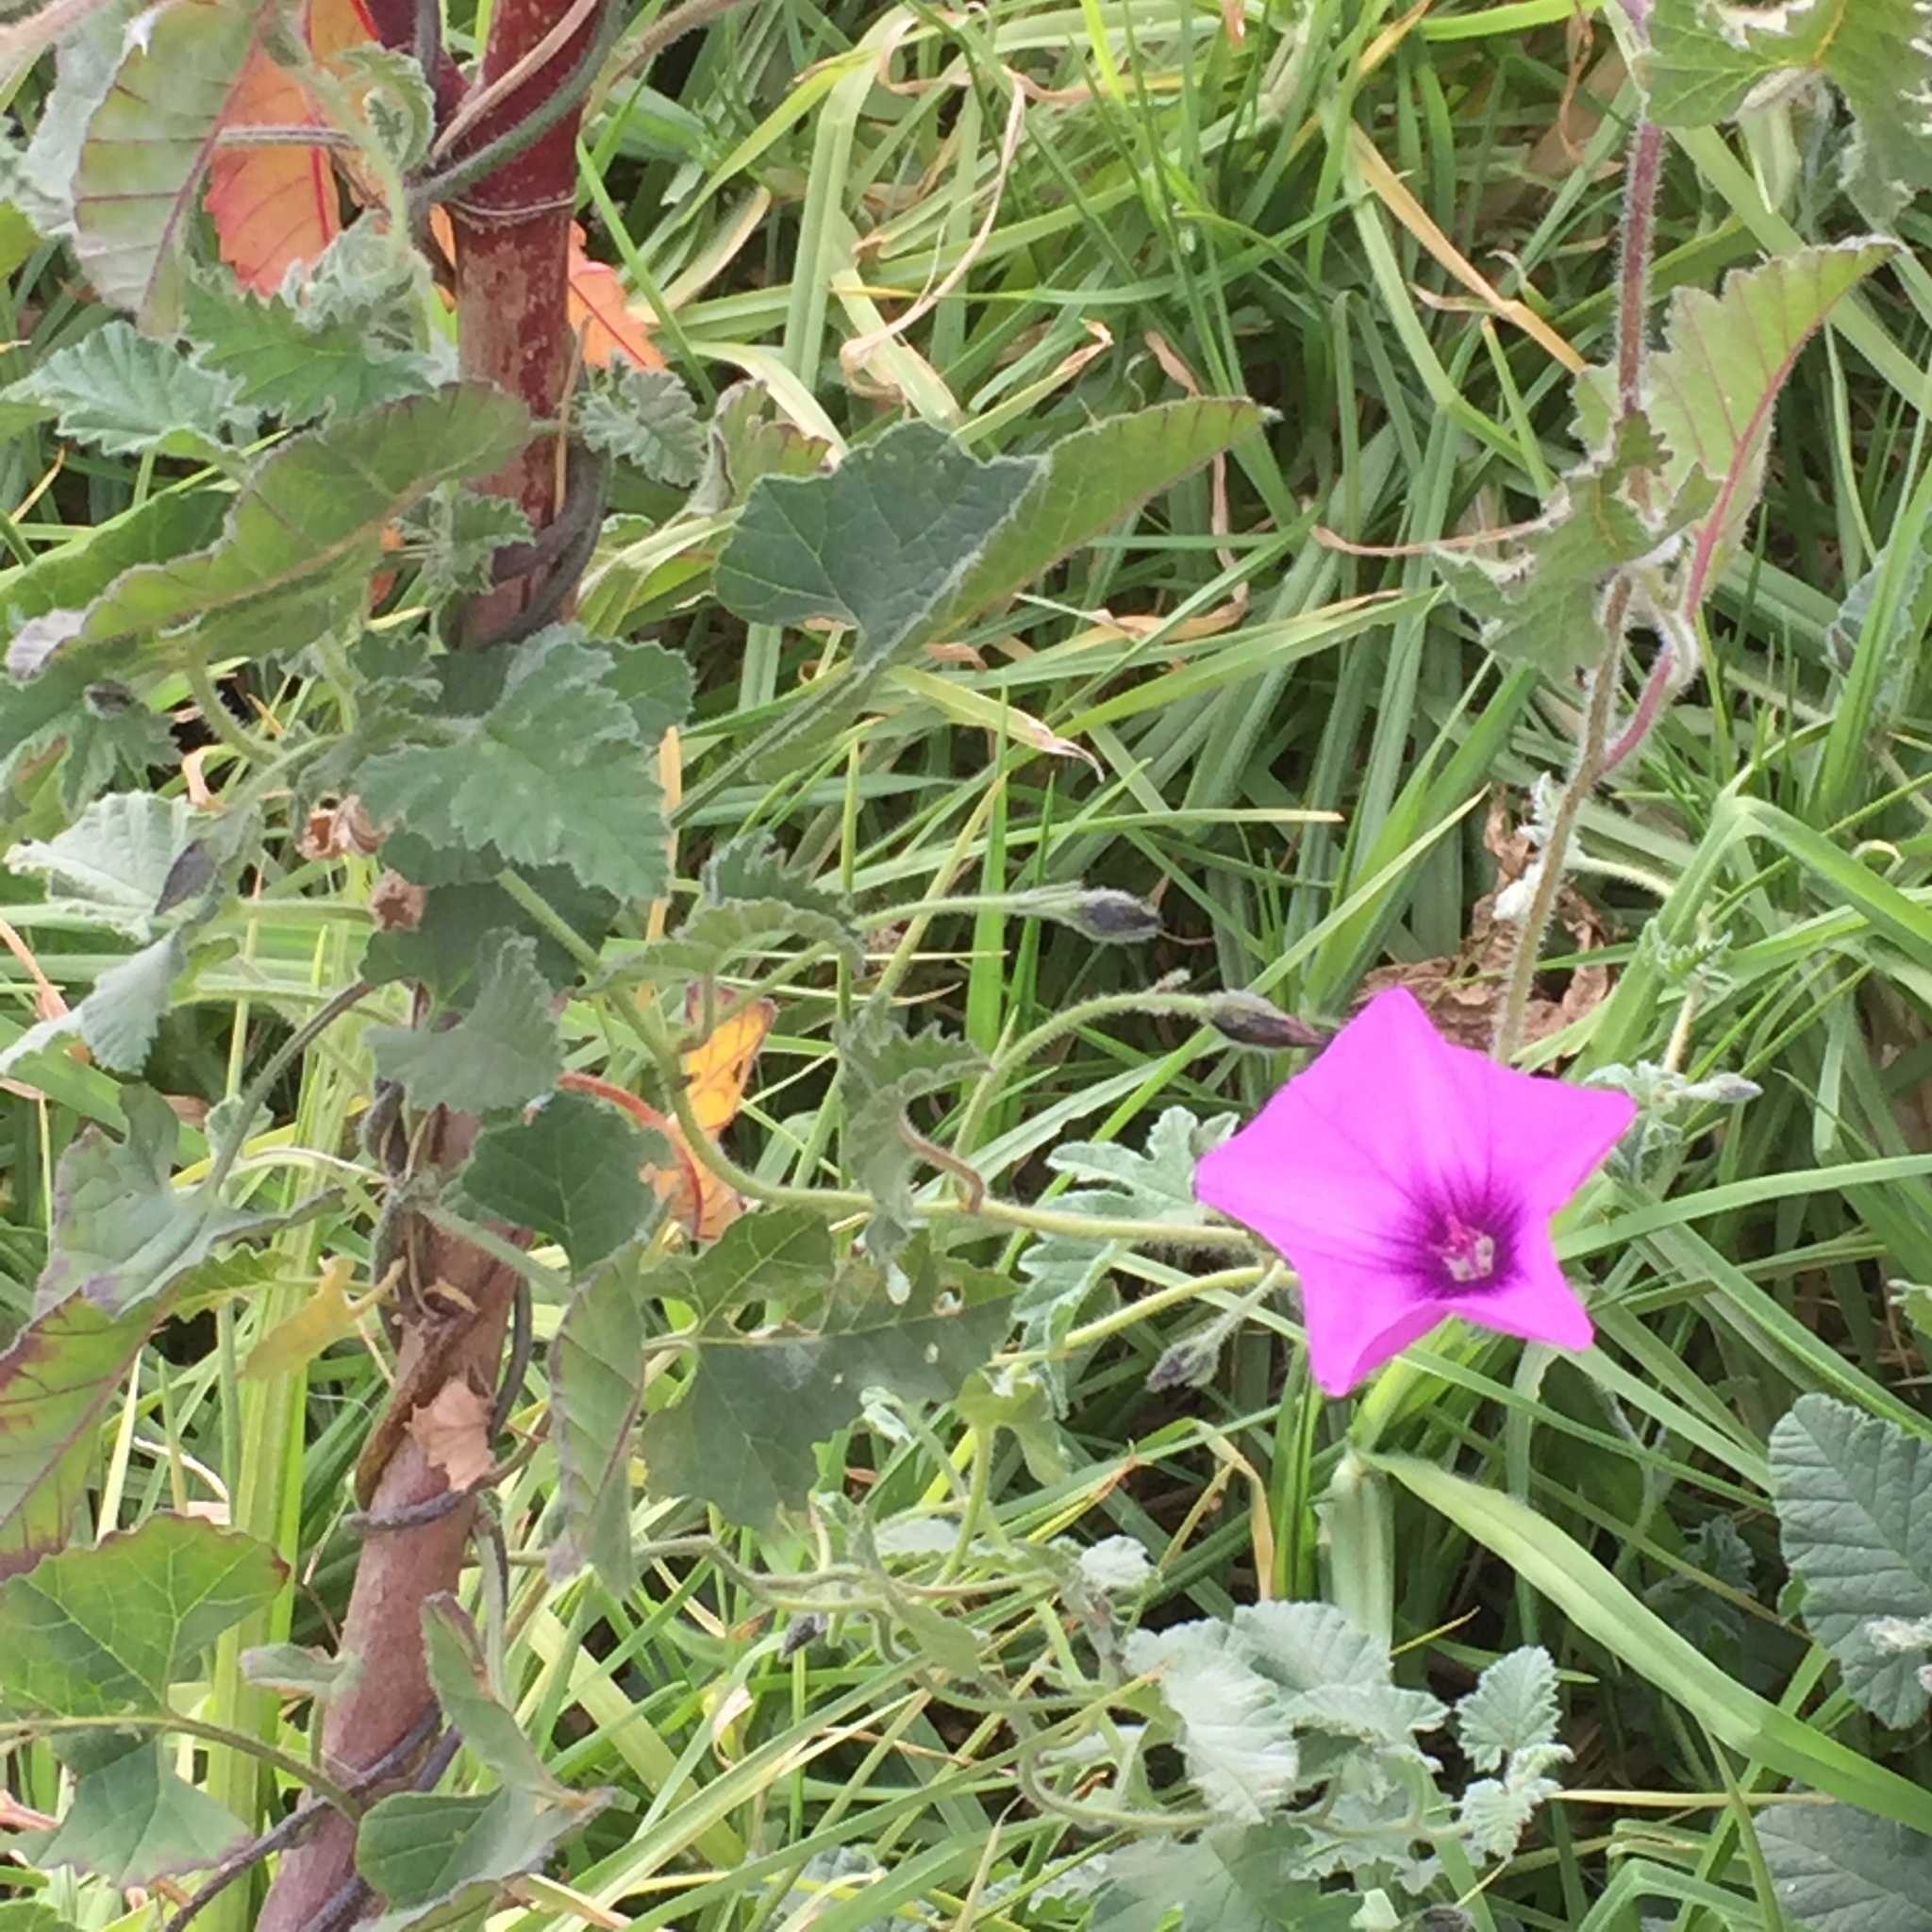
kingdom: Plantae
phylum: Tracheophyta
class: Magnoliopsida
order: Solanales
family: Convolvulaceae
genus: Convolvulus
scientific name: Convolvulus althaeoides
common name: Mallow bindweed
